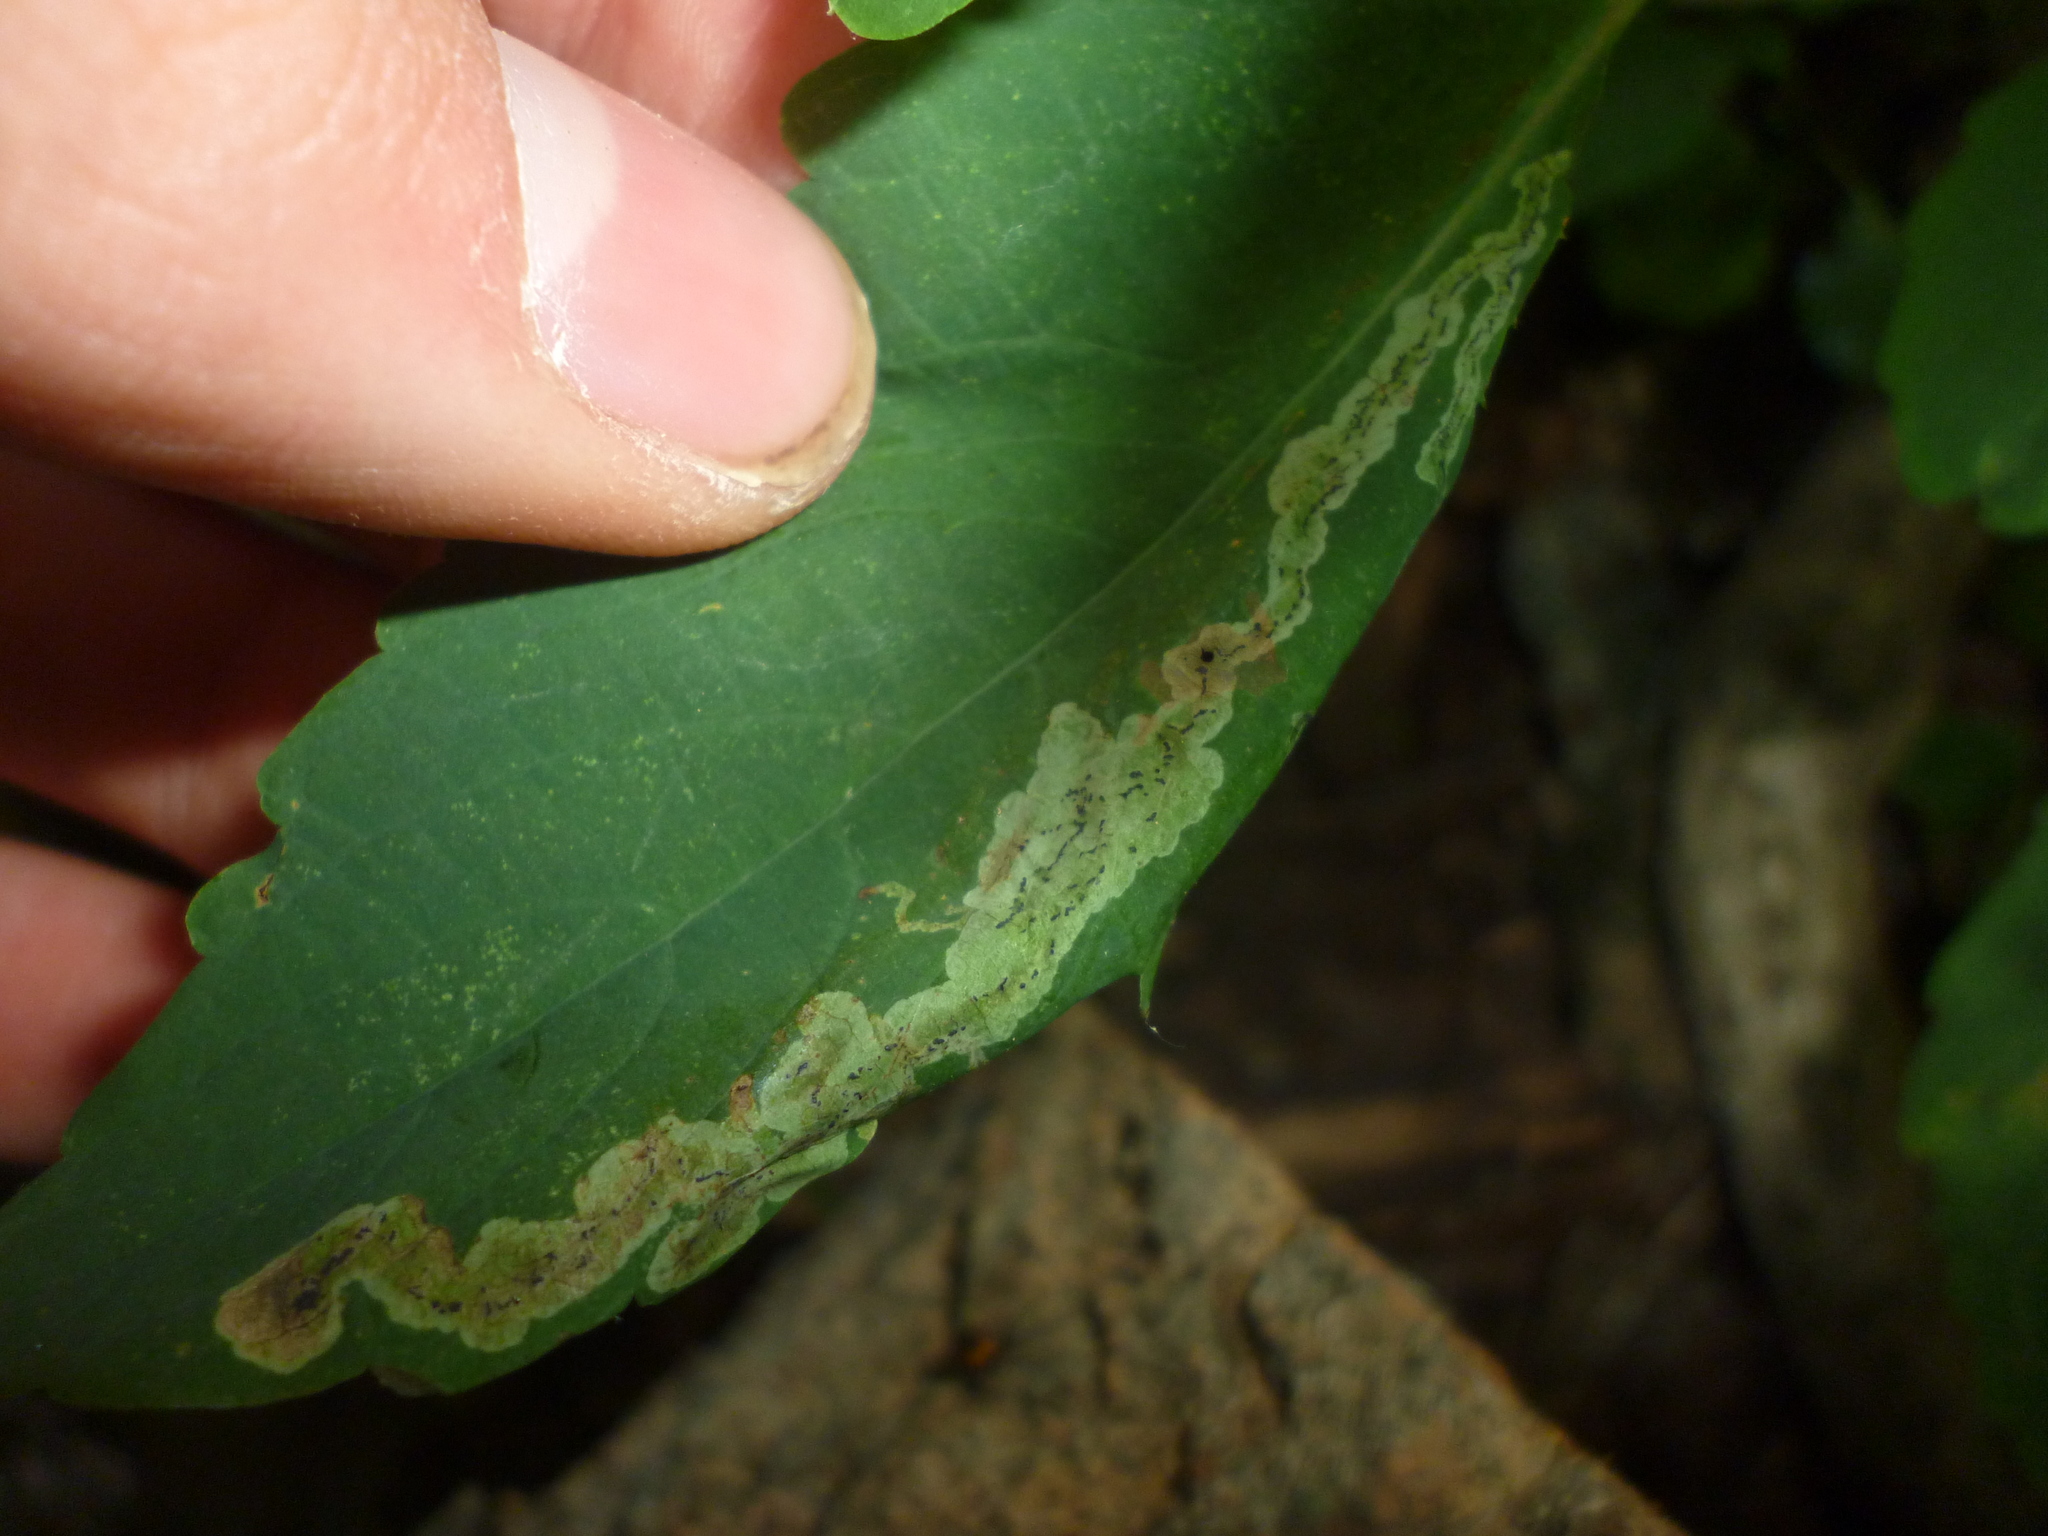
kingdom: Animalia
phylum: Arthropoda
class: Insecta
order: Diptera
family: Agromyzidae
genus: Phytoliriomyza
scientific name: Phytoliriomyza melampyga
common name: Jewelweed leaf-miner fly
